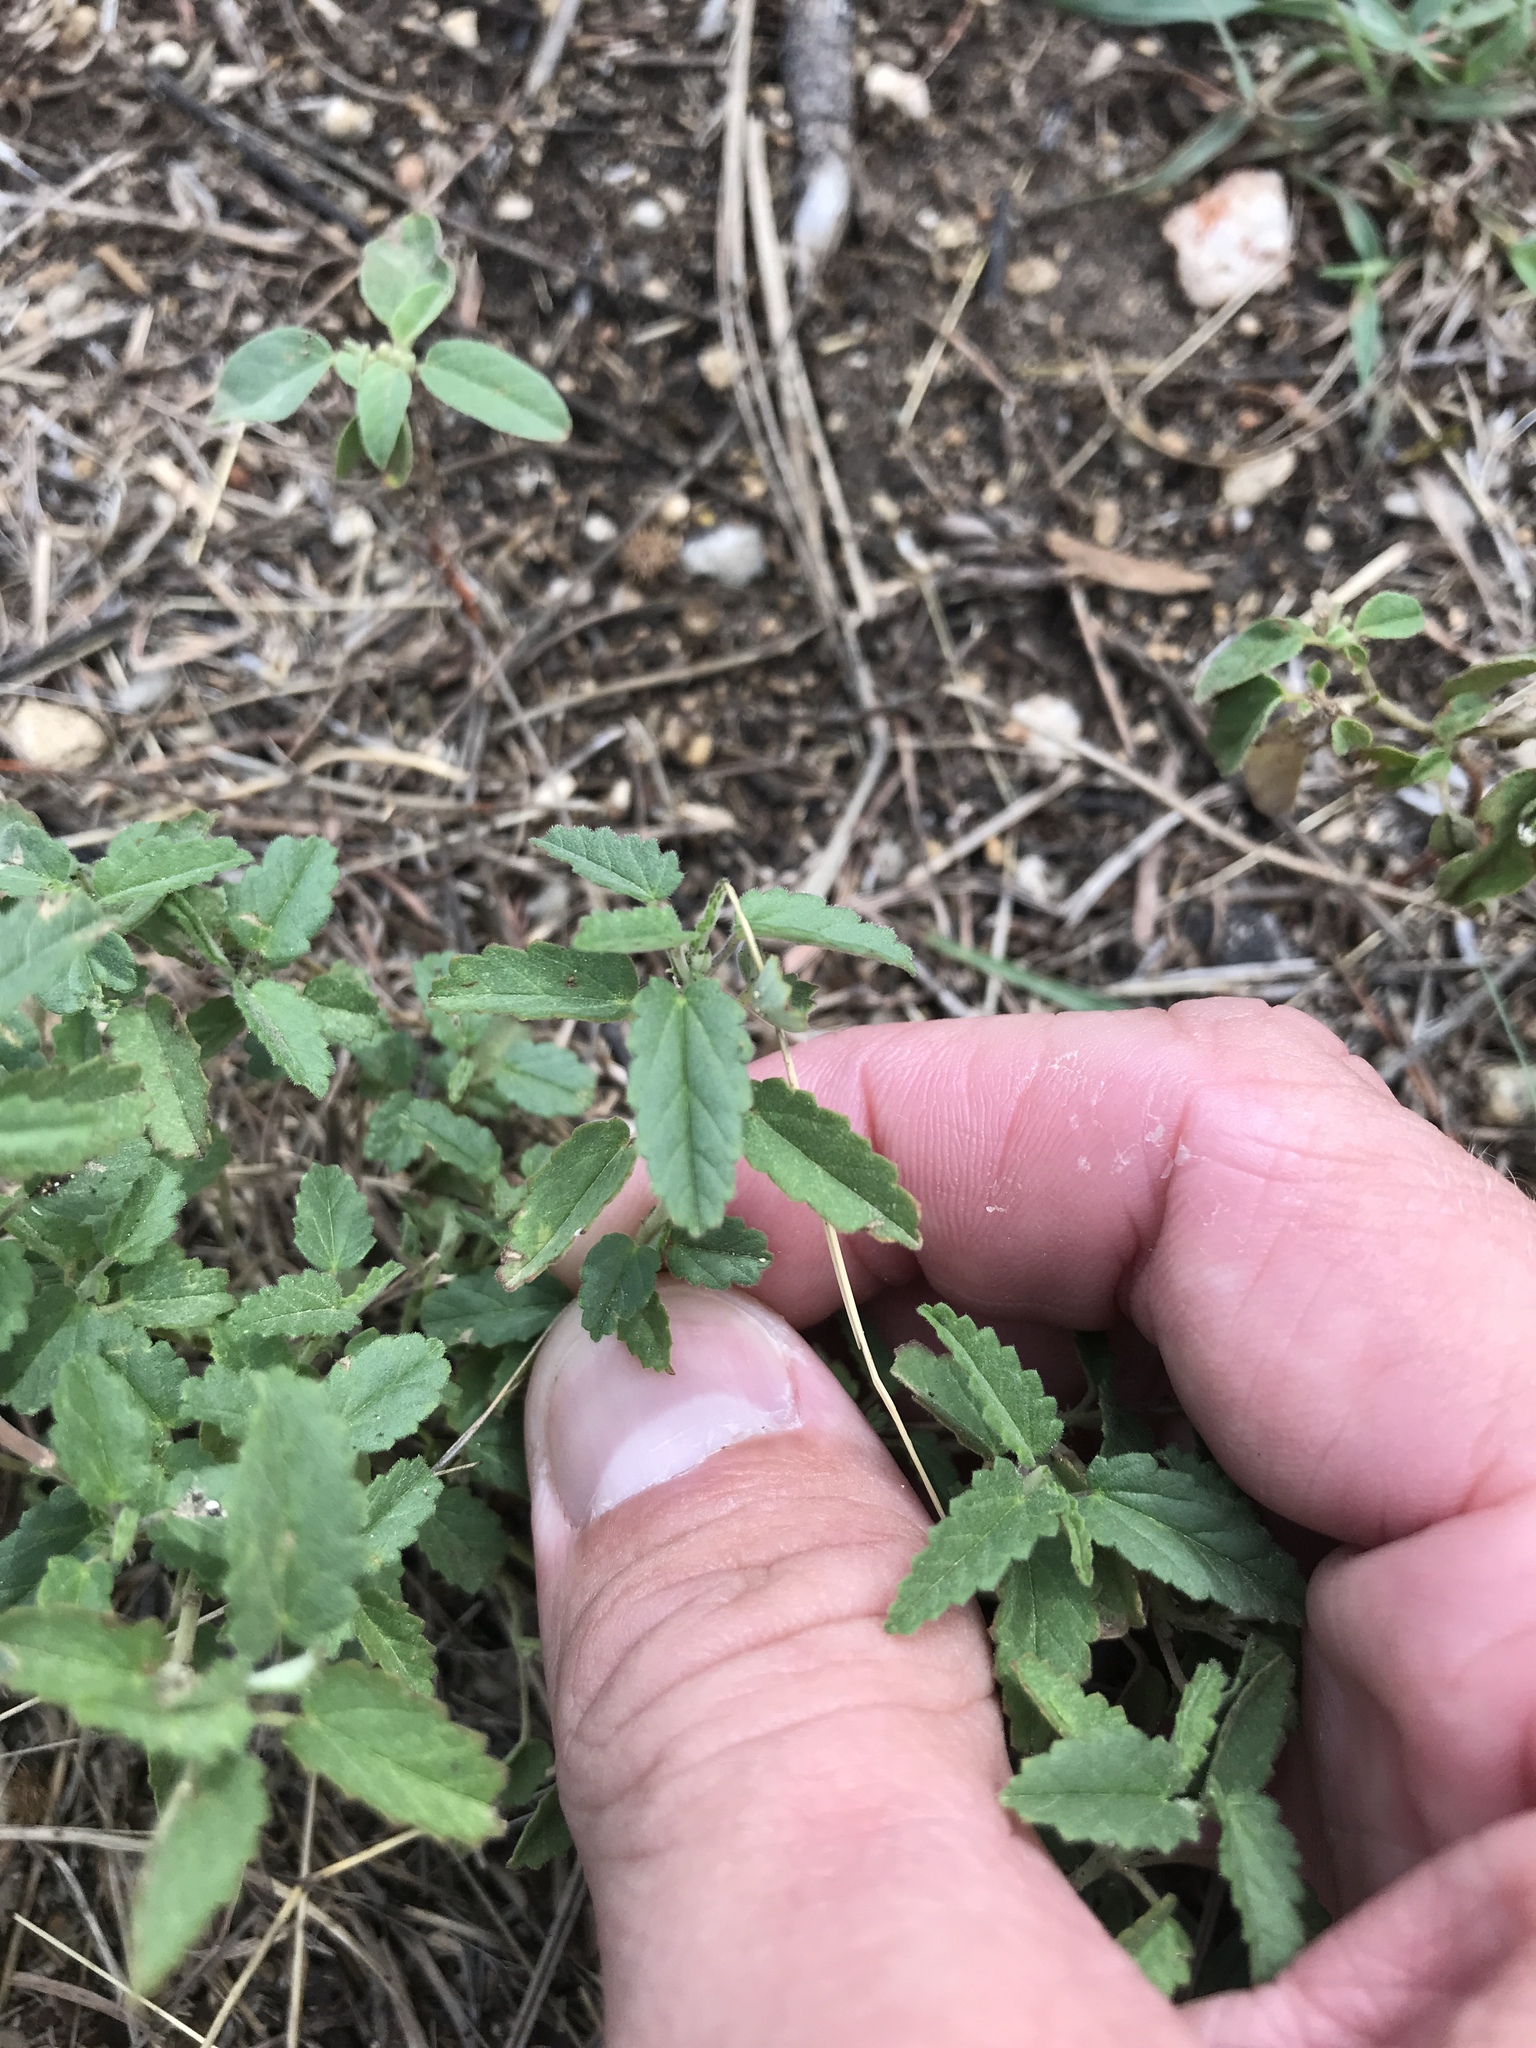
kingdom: Plantae
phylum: Tracheophyta
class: Magnoliopsida
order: Malvales
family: Malvaceae
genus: Sida
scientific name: Sida abutilifolia
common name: Spreading fanpetals
